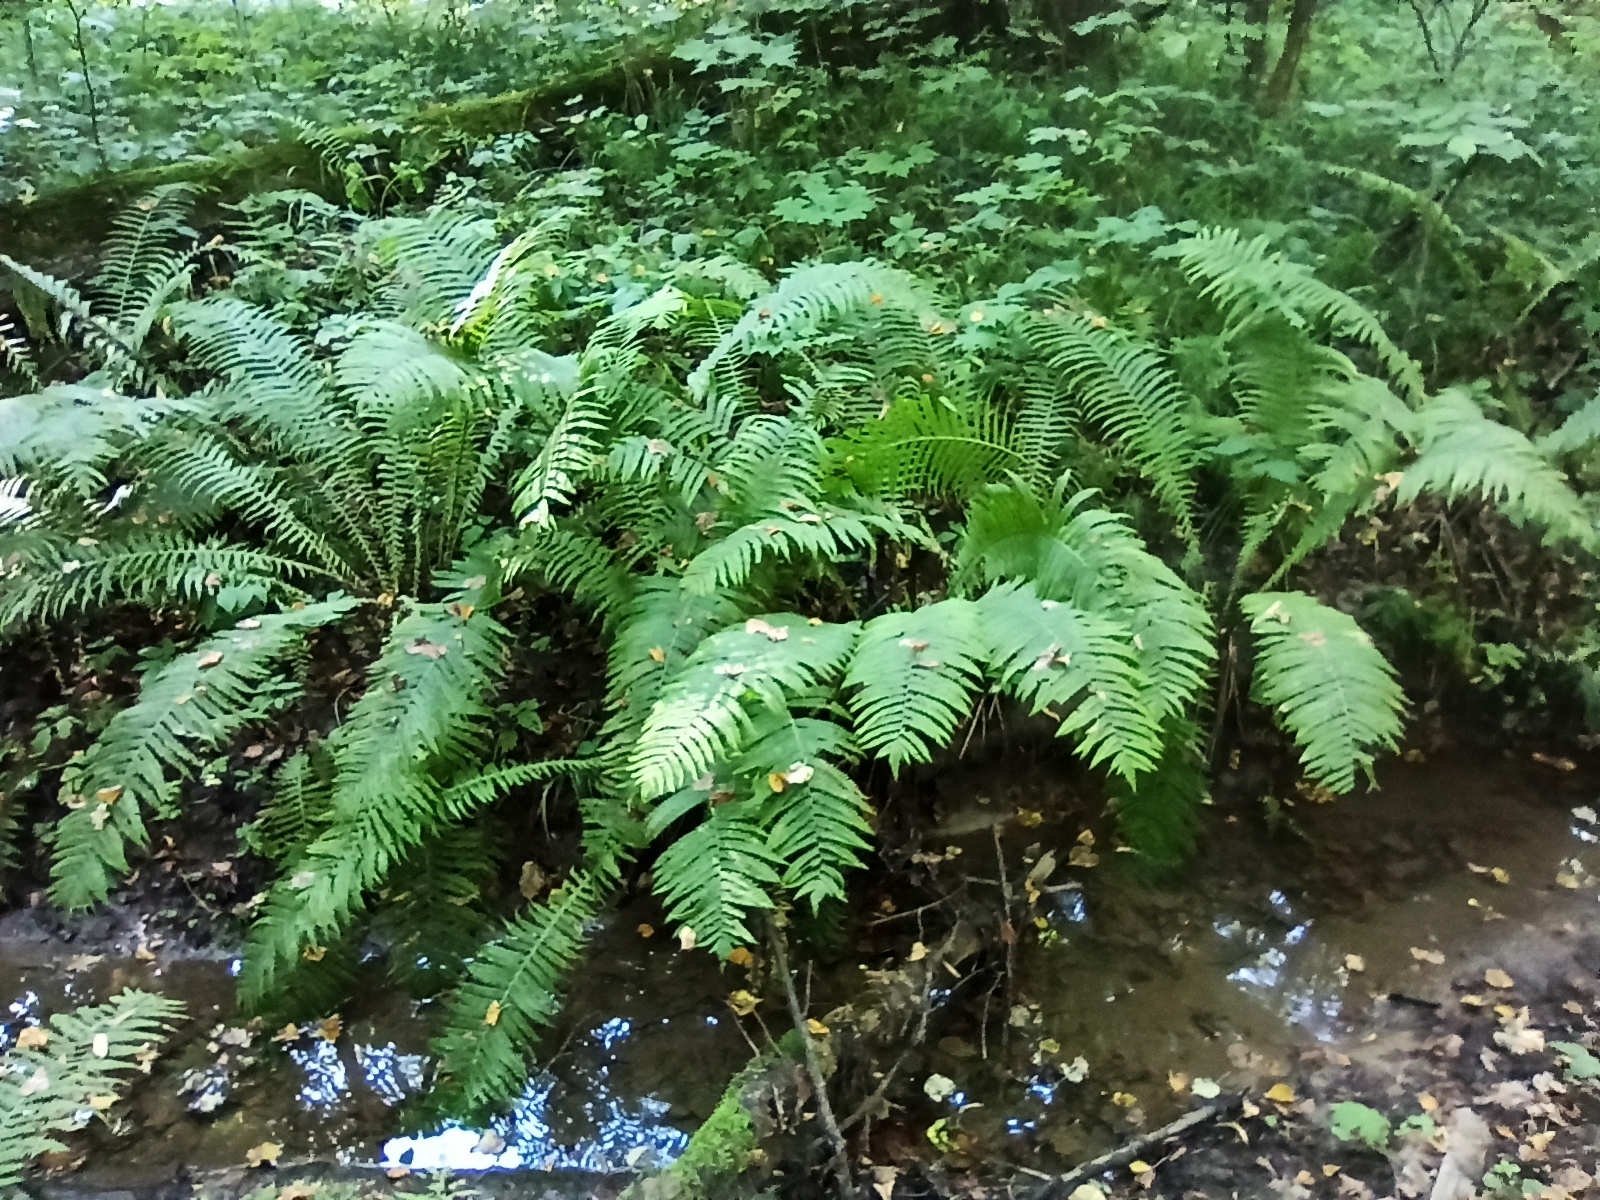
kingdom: Plantae
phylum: Tracheophyta
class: Polypodiopsida
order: Polypodiales
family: Onocleaceae
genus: Matteuccia
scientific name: Matteuccia struthiopteris
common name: Ostrich fern
